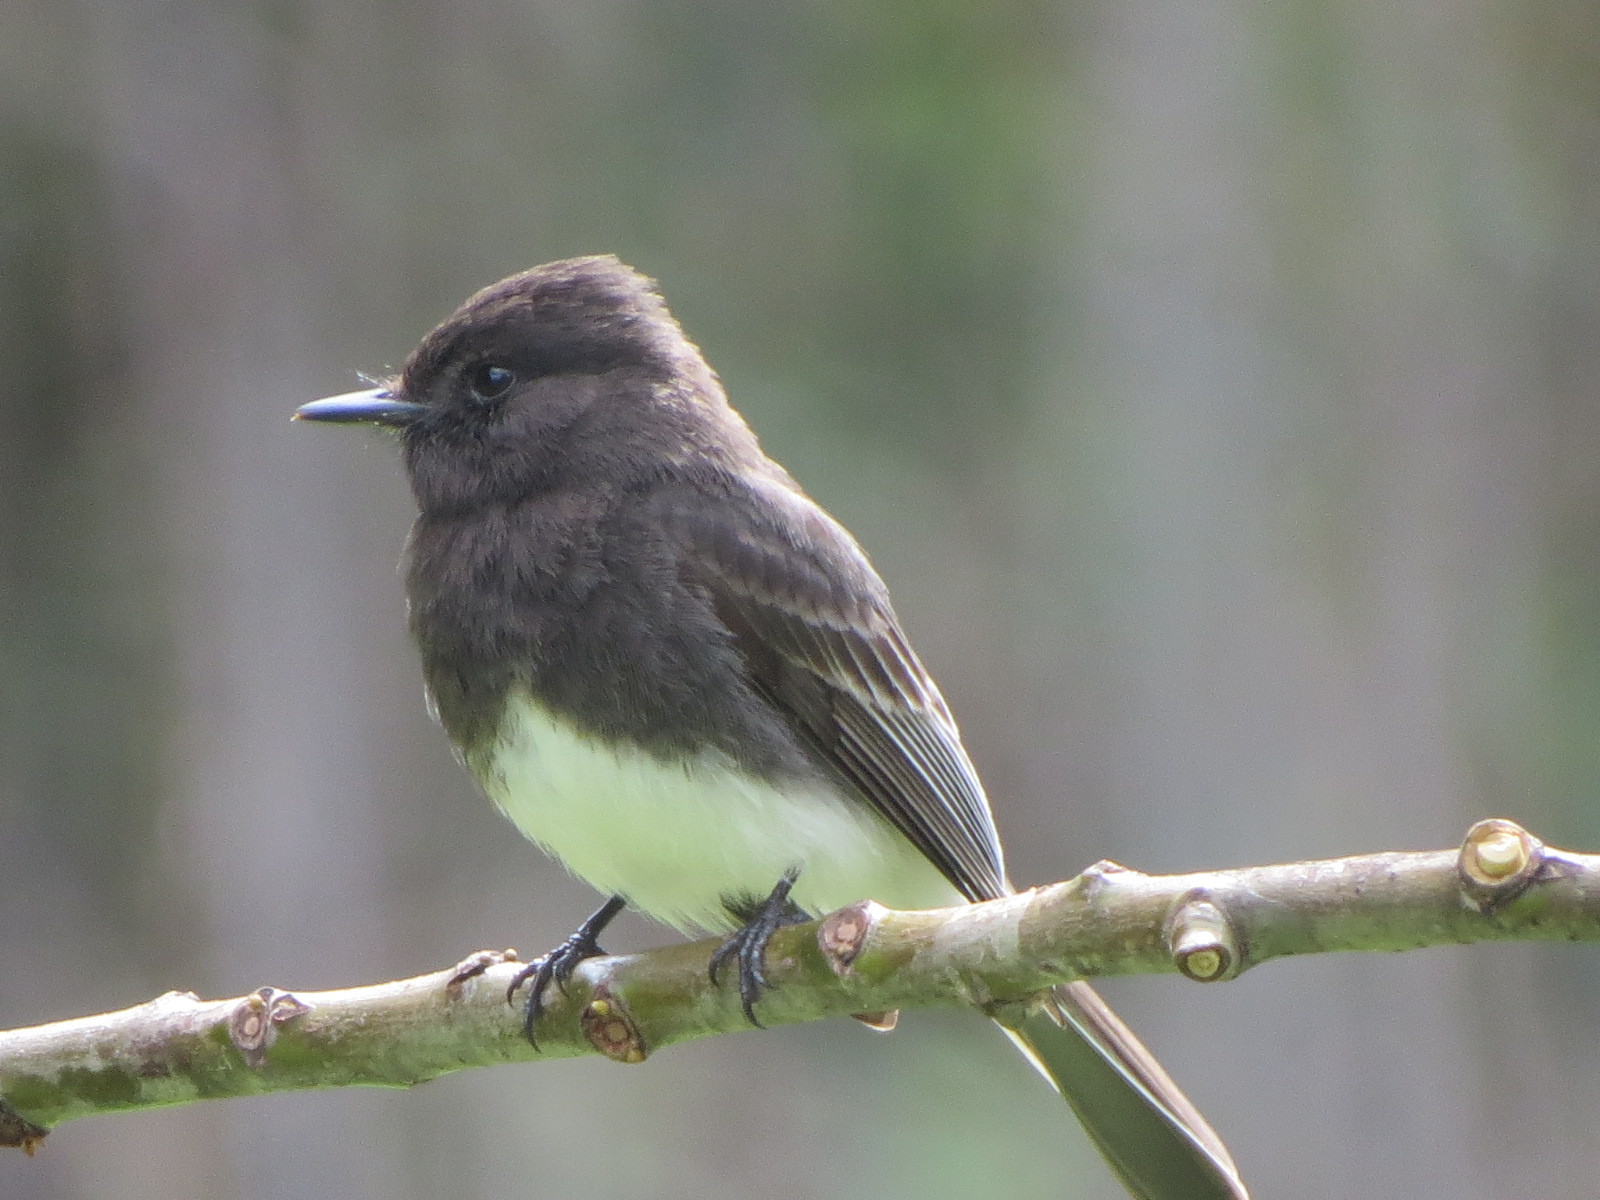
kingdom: Animalia
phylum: Chordata
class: Aves
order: Passeriformes
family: Tyrannidae
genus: Sayornis
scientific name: Sayornis nigricans
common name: Black phoebe
